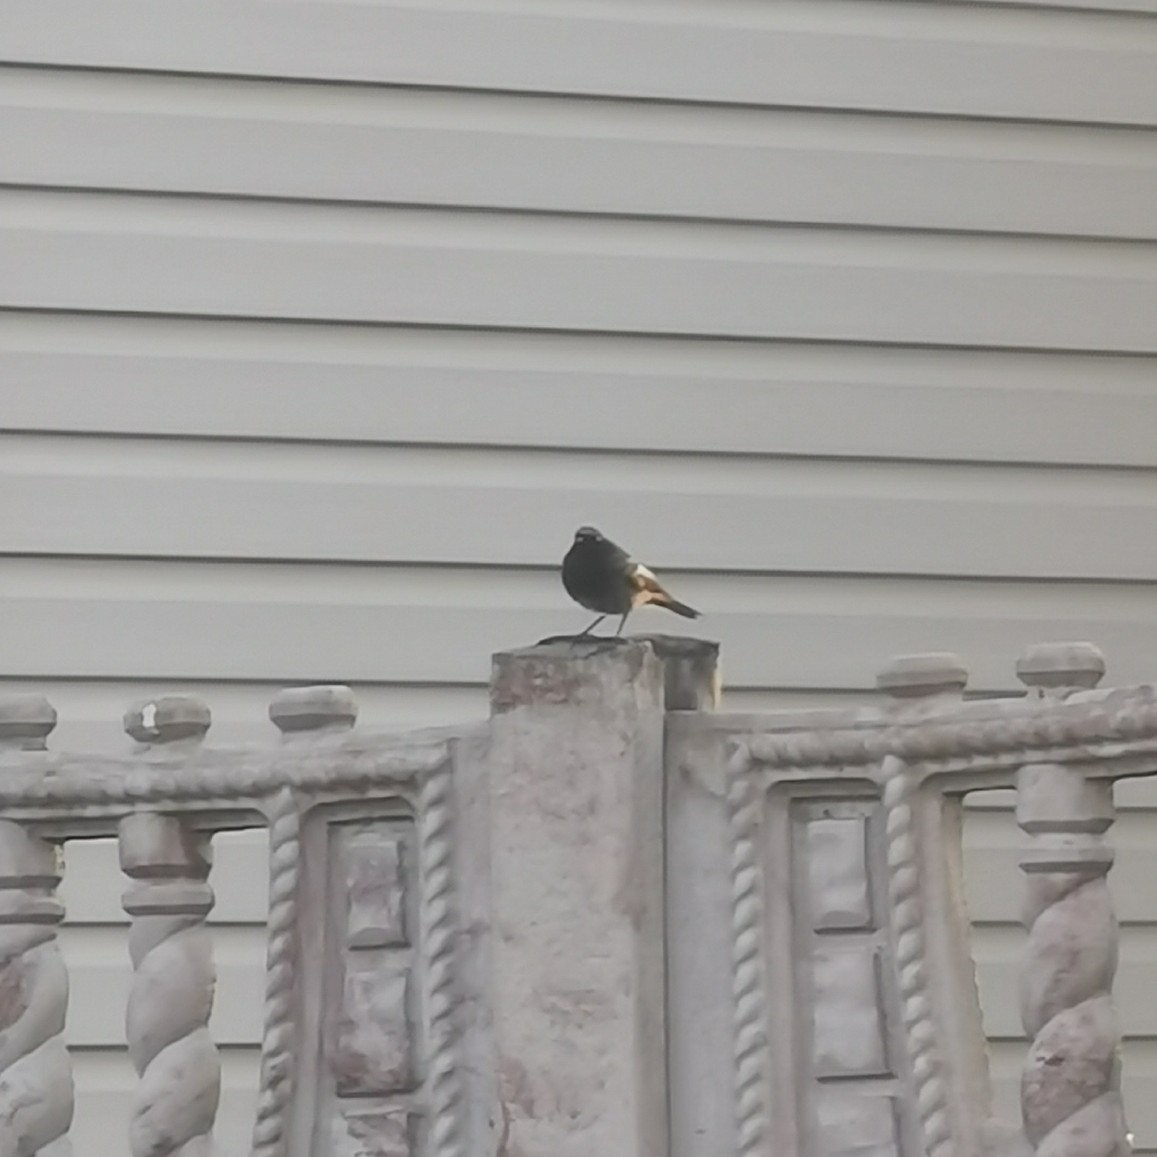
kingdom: Animalia
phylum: Chordata
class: Aves
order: Passeriformes
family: Muscicapidae
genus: Phoenicurus
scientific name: Phoenicurus ochruros
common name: Black redstart
